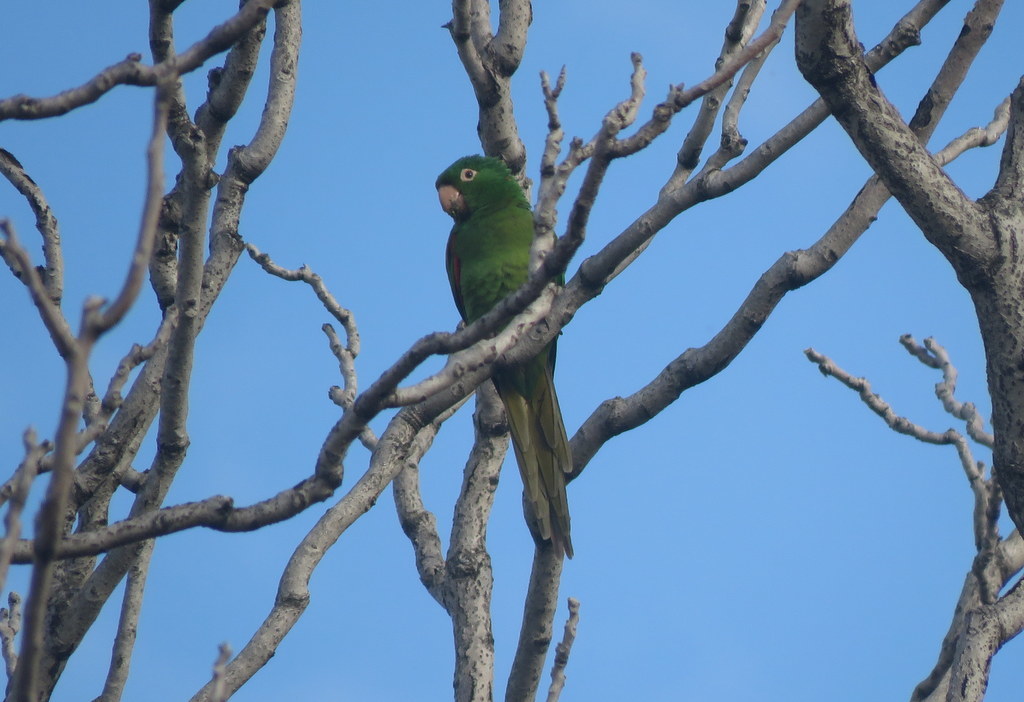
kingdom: Animalia
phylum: Chordata
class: Aves
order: Psittaciformes
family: Psittacidae
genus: Aratinga
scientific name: Aratinga leucophthalma
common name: White-eyed parakeet
